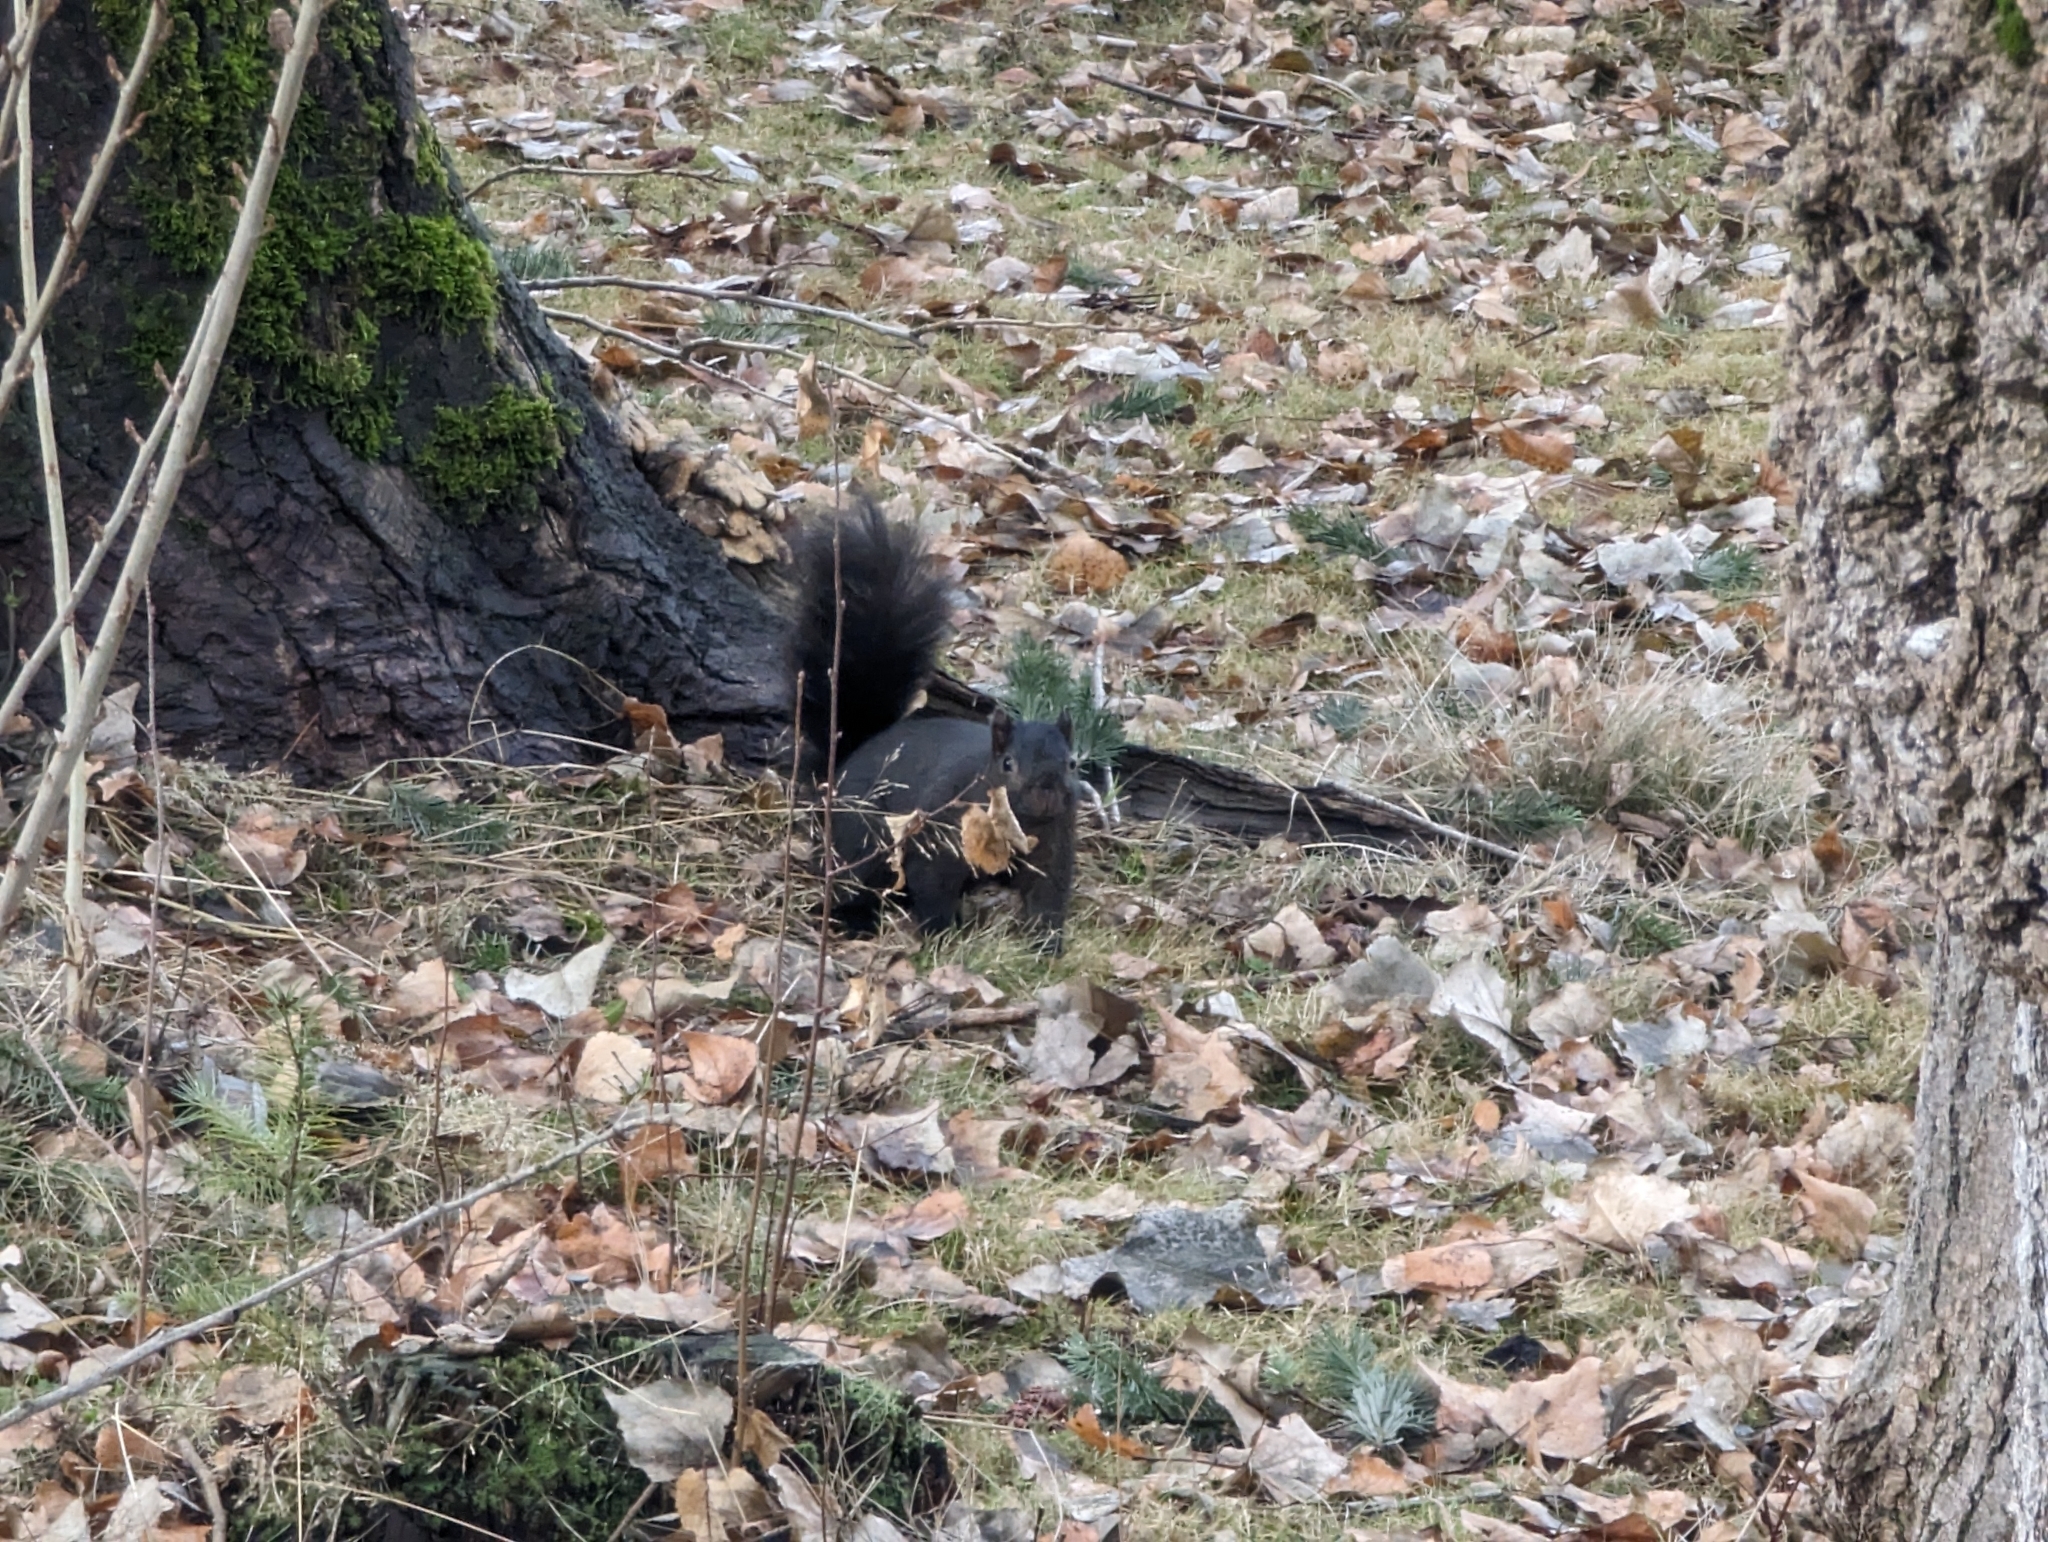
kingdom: Animalia
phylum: Chordata
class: Mammalia
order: Rodentia
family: Sciuridae
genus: Sciurus
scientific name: Sciurus carolinensis
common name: Eastern gray squirrel
